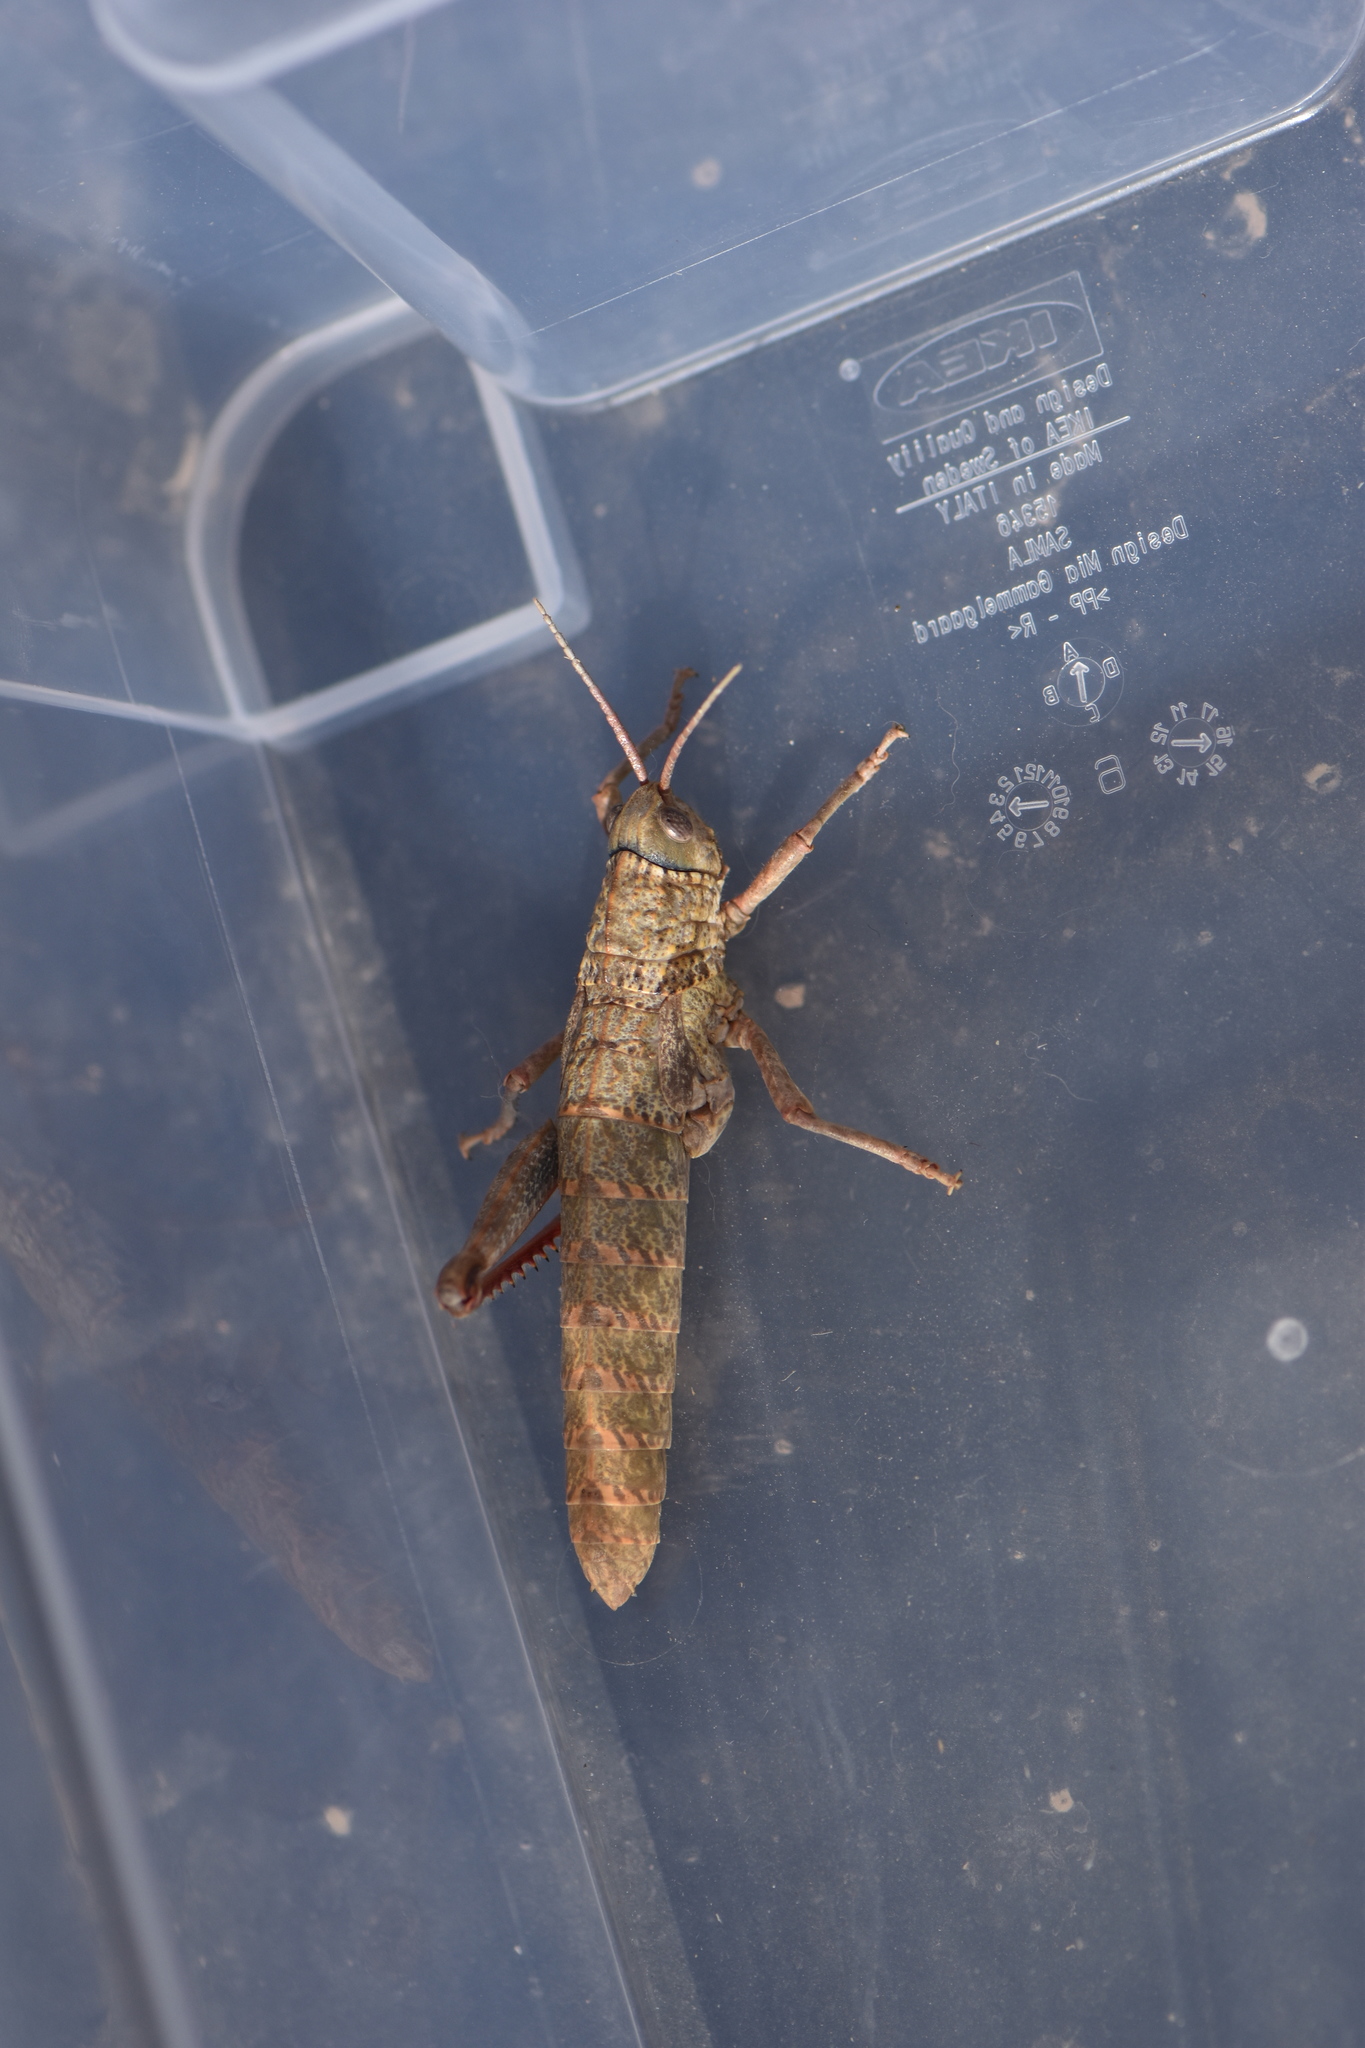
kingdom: Animalia
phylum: Arthropoda
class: Insecta
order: Orthoptera
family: Pamphagidae
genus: Acinipe
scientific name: Acinipe hesperica
